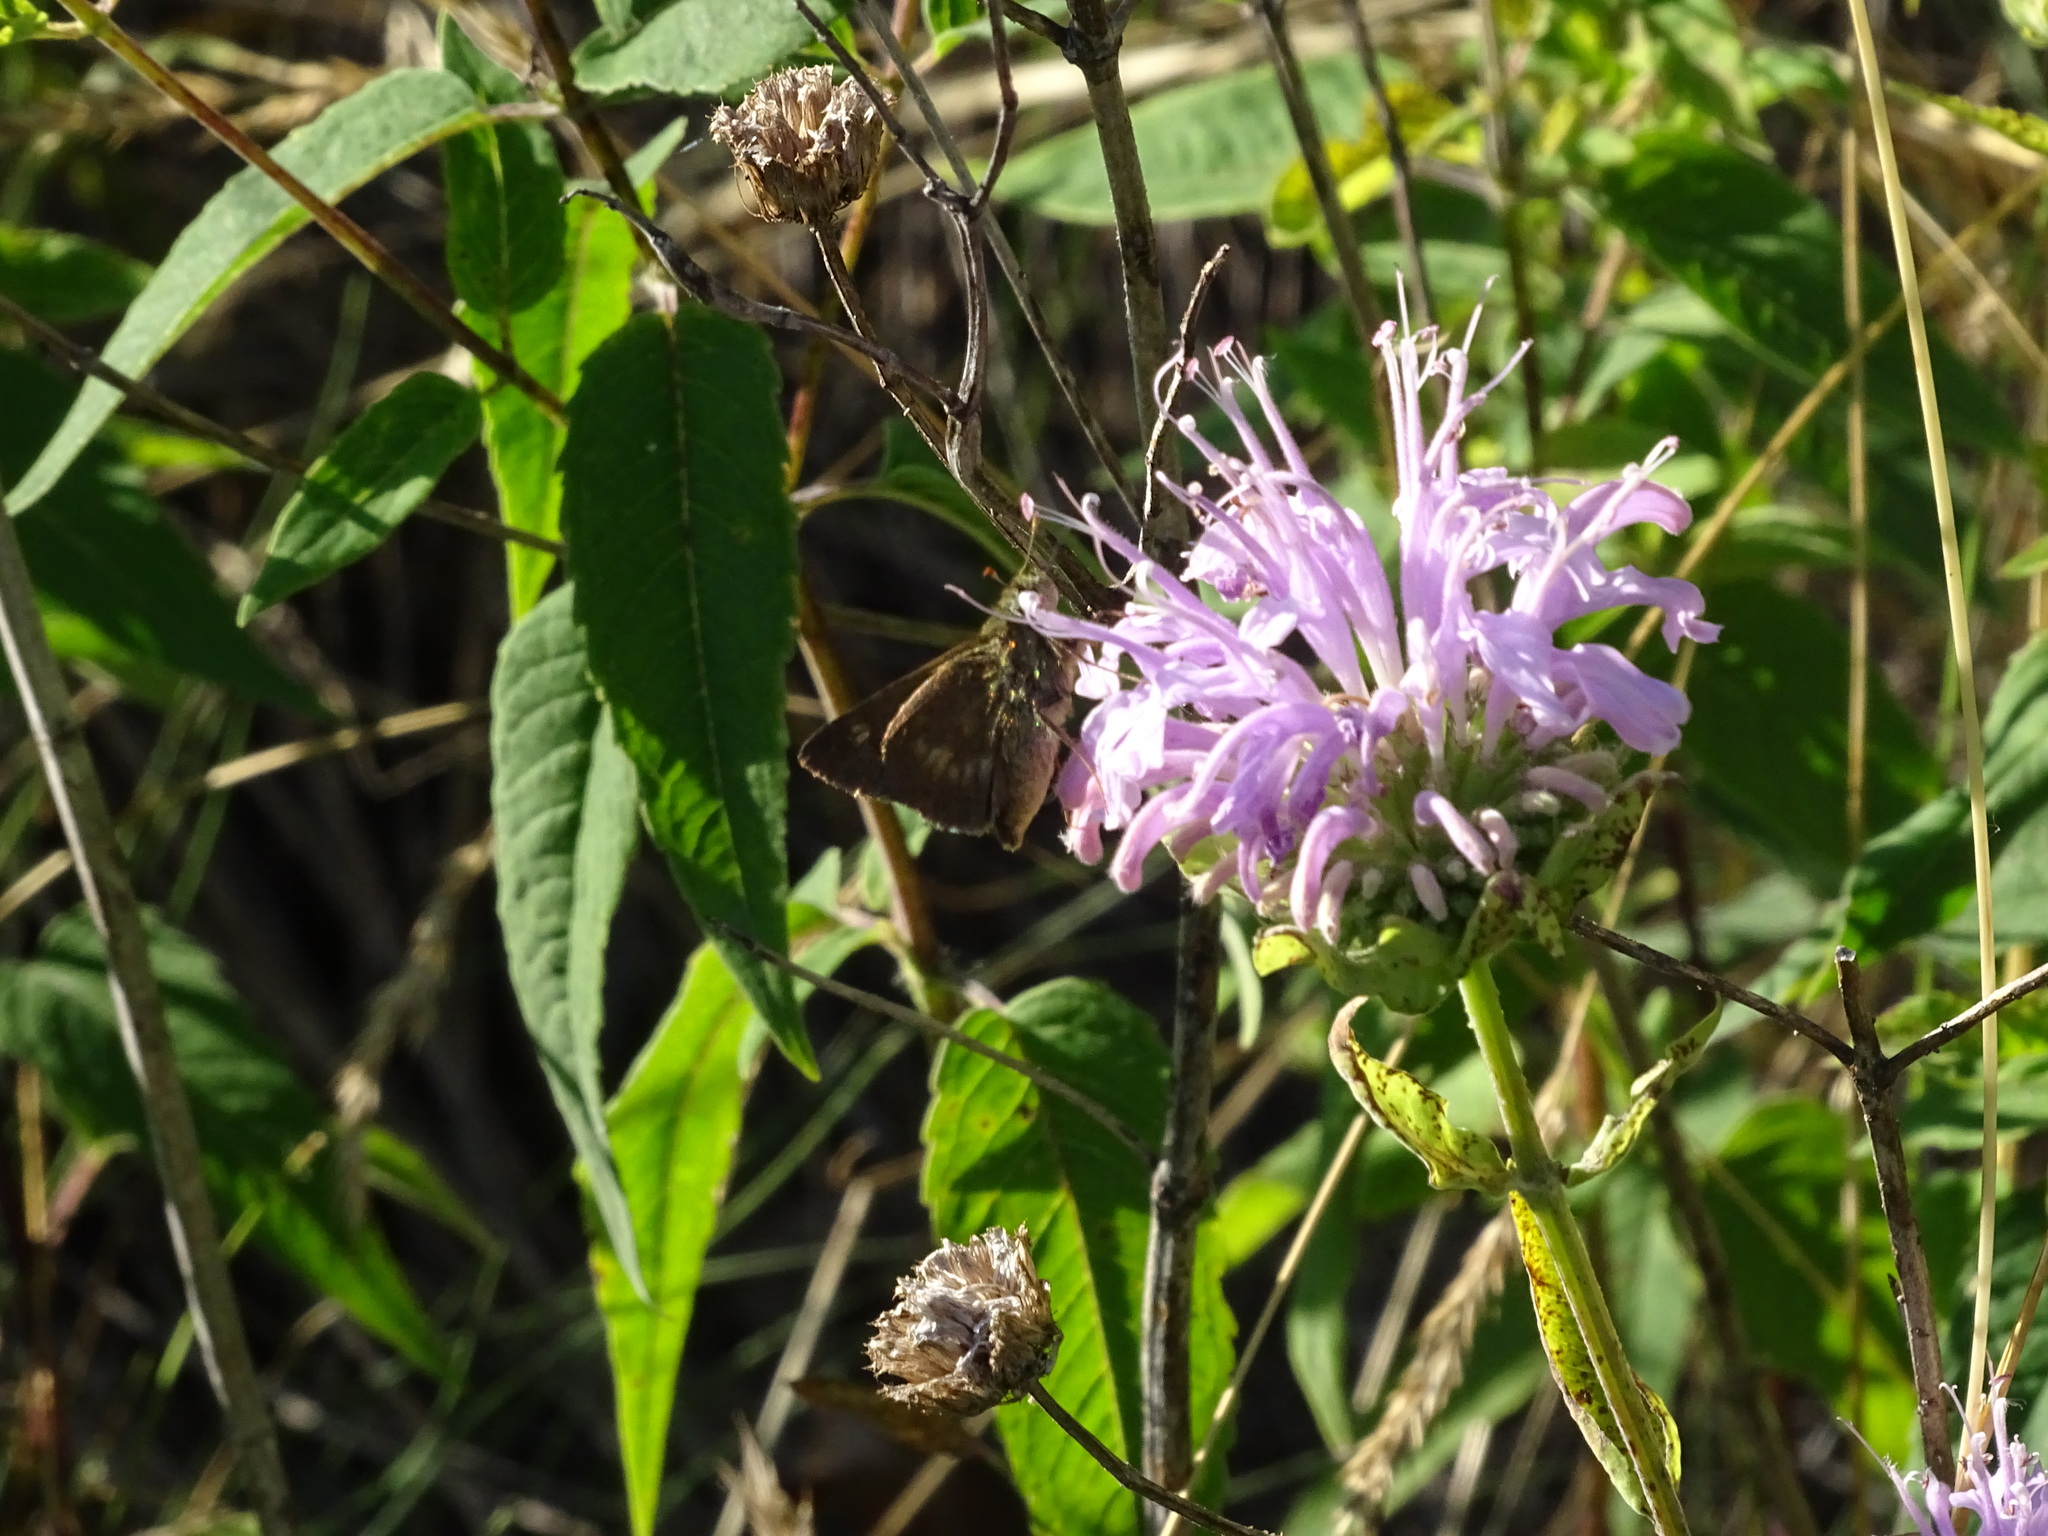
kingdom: Animalia
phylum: Arthropoda
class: Insecta
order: Lepidoptera
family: Hesperiidae
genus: Polites
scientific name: Polites egeremet
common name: Northern broken-dash
